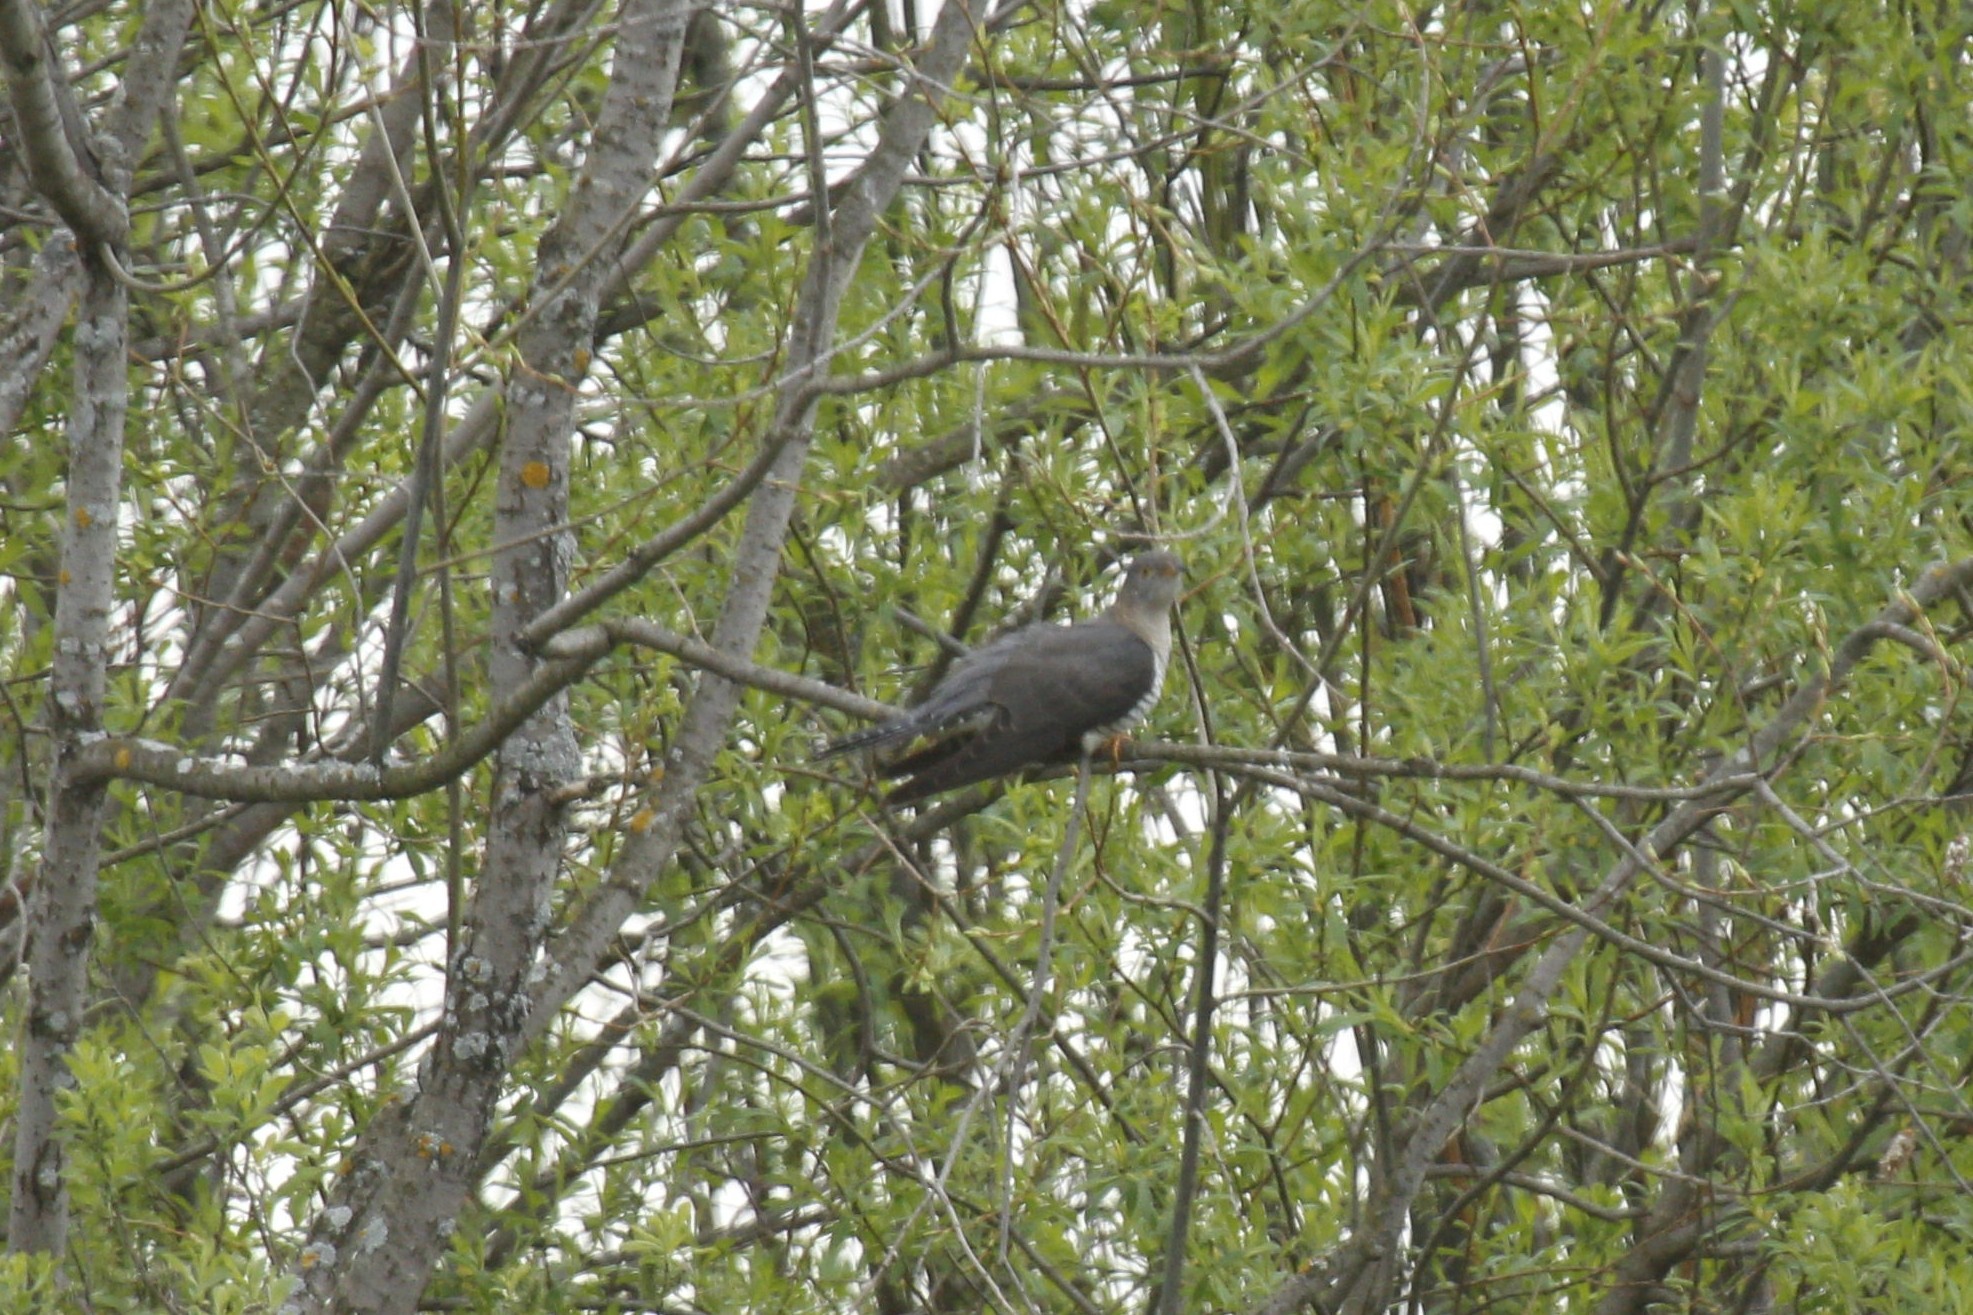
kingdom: Animalia
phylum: Chordata
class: Aves
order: Cuculiformes
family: Cuculidae
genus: Cuculus
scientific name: Cuculus canorus
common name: Common cuckoo
